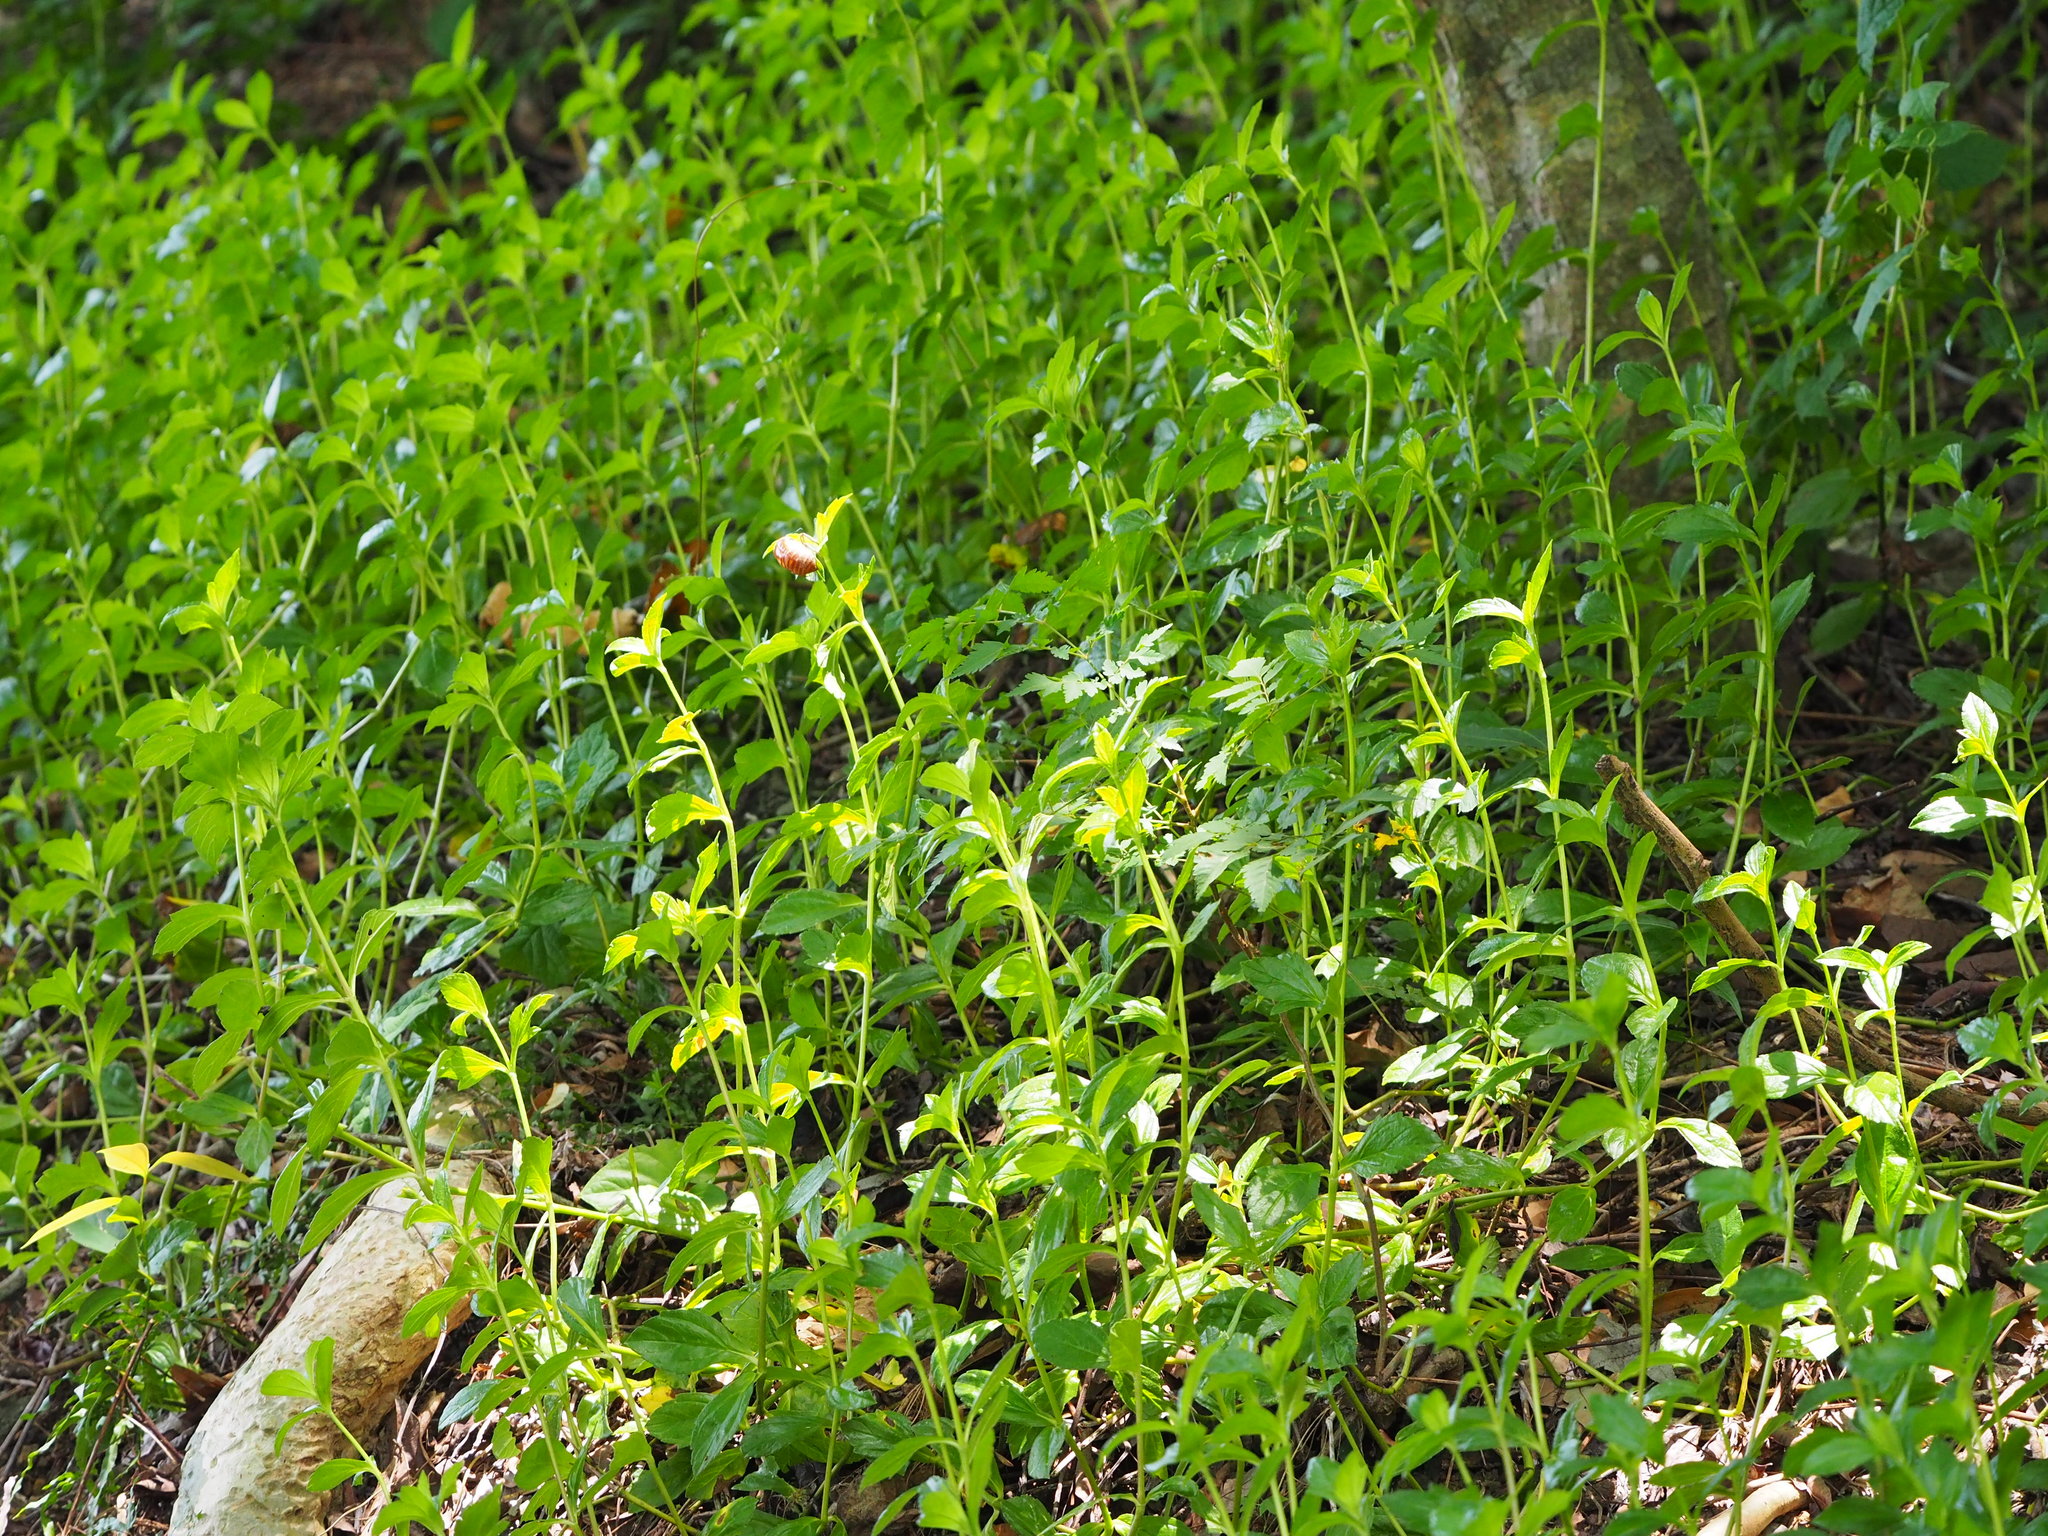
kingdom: Plantae
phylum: Tracheophyta
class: Magnoliopsida
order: Asterales
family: Asteraceae
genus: Sphagneticola
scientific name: Sphagneticola trilobata
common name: Bay biscayne creeping-oxeye
